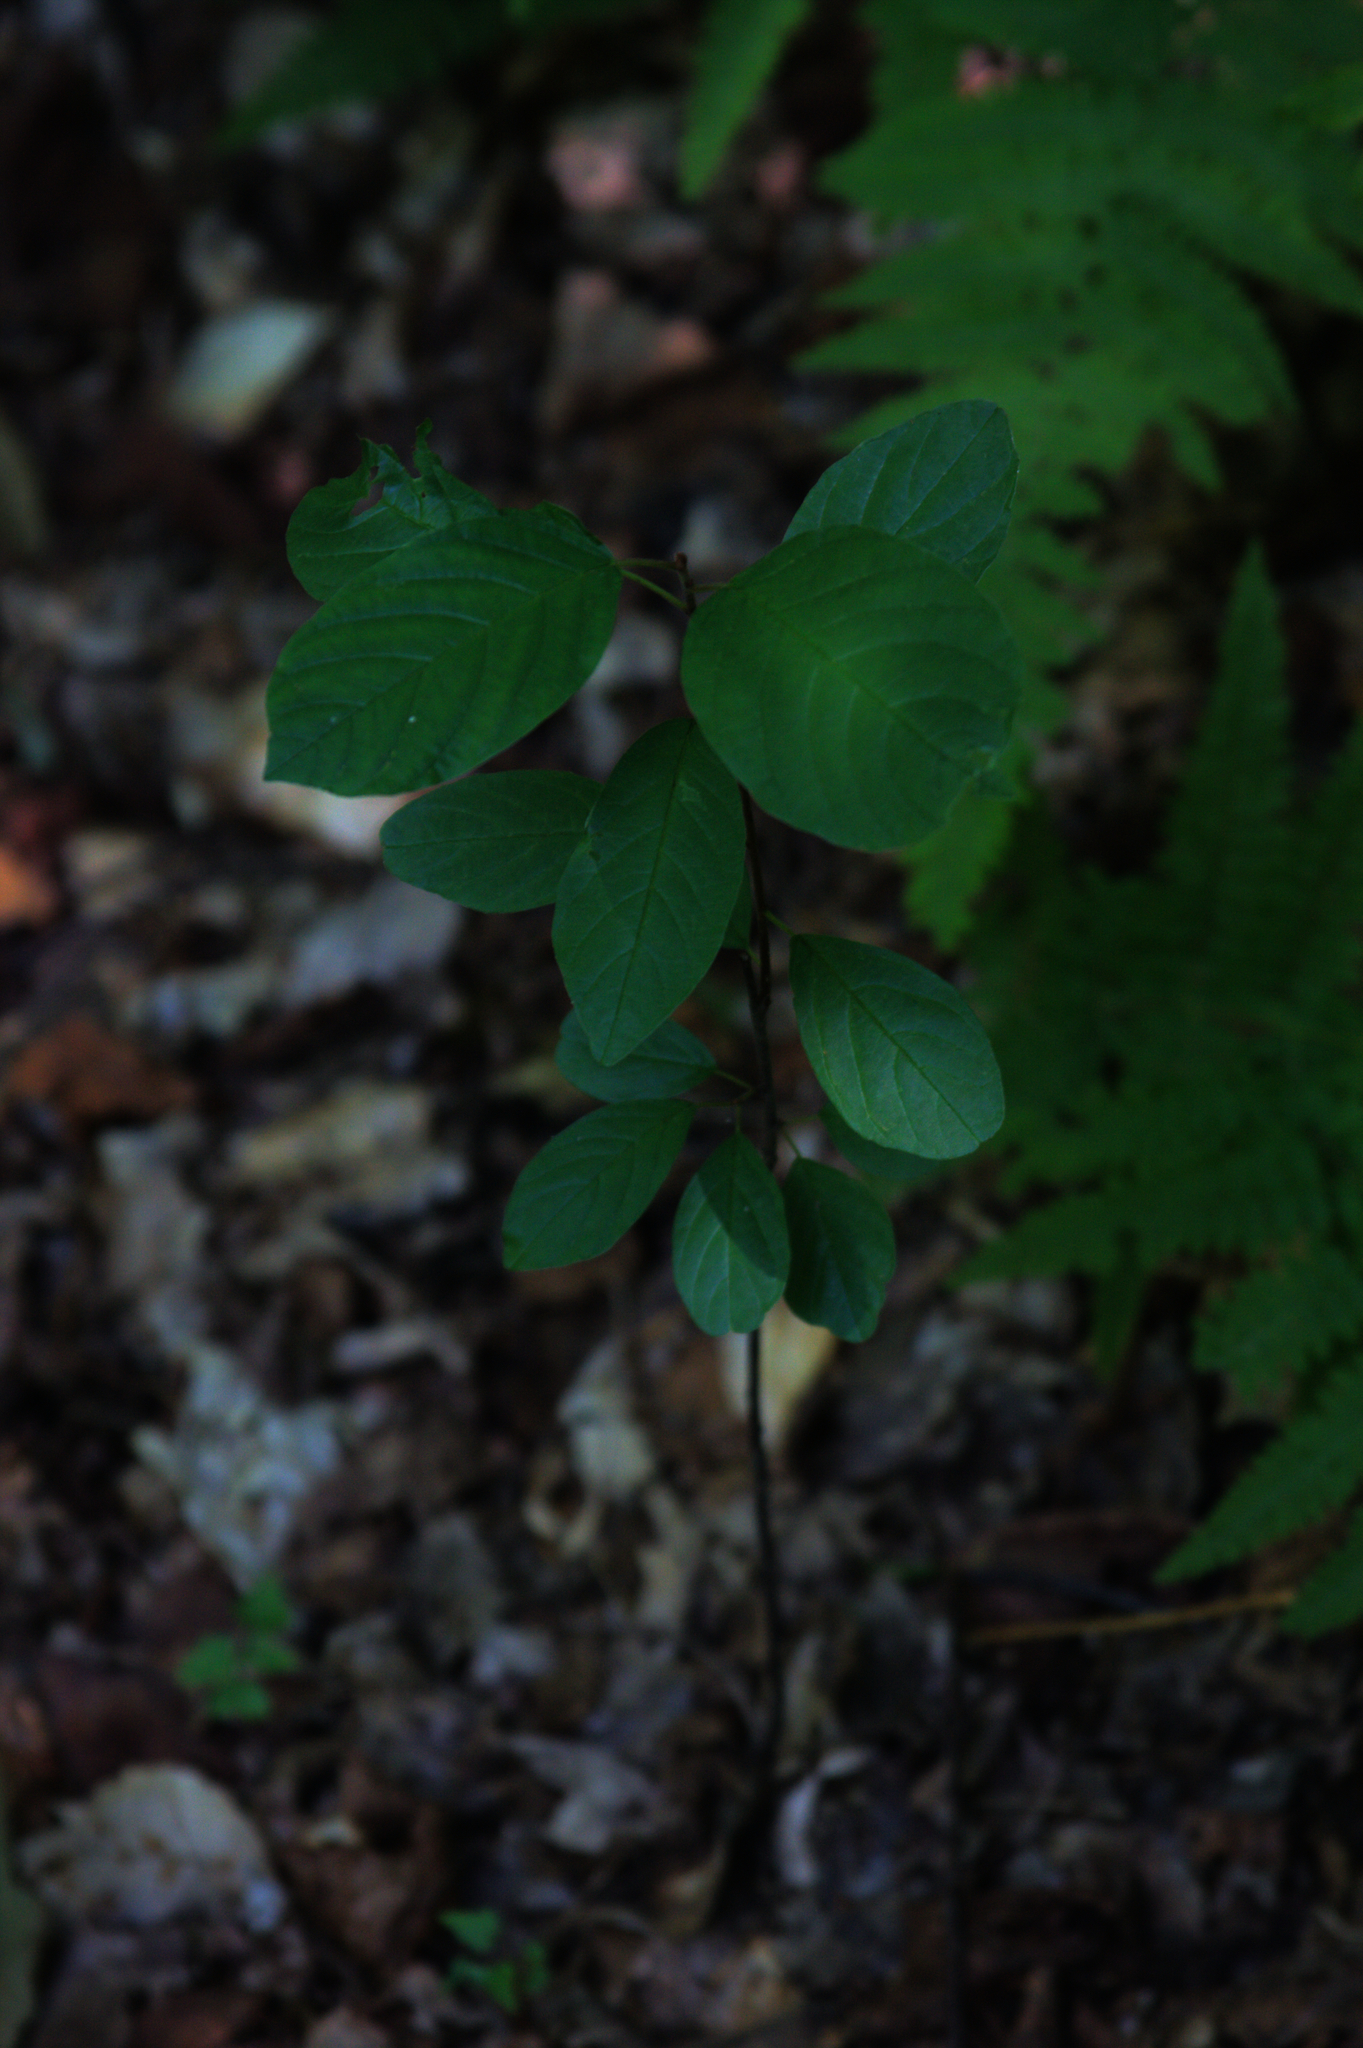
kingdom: Plantae
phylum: Tracheophyta
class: Magnoliopsida
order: Rosales
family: Rhamnaceae
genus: Frangula
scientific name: Frangula alnus
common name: Alder buckthorn
